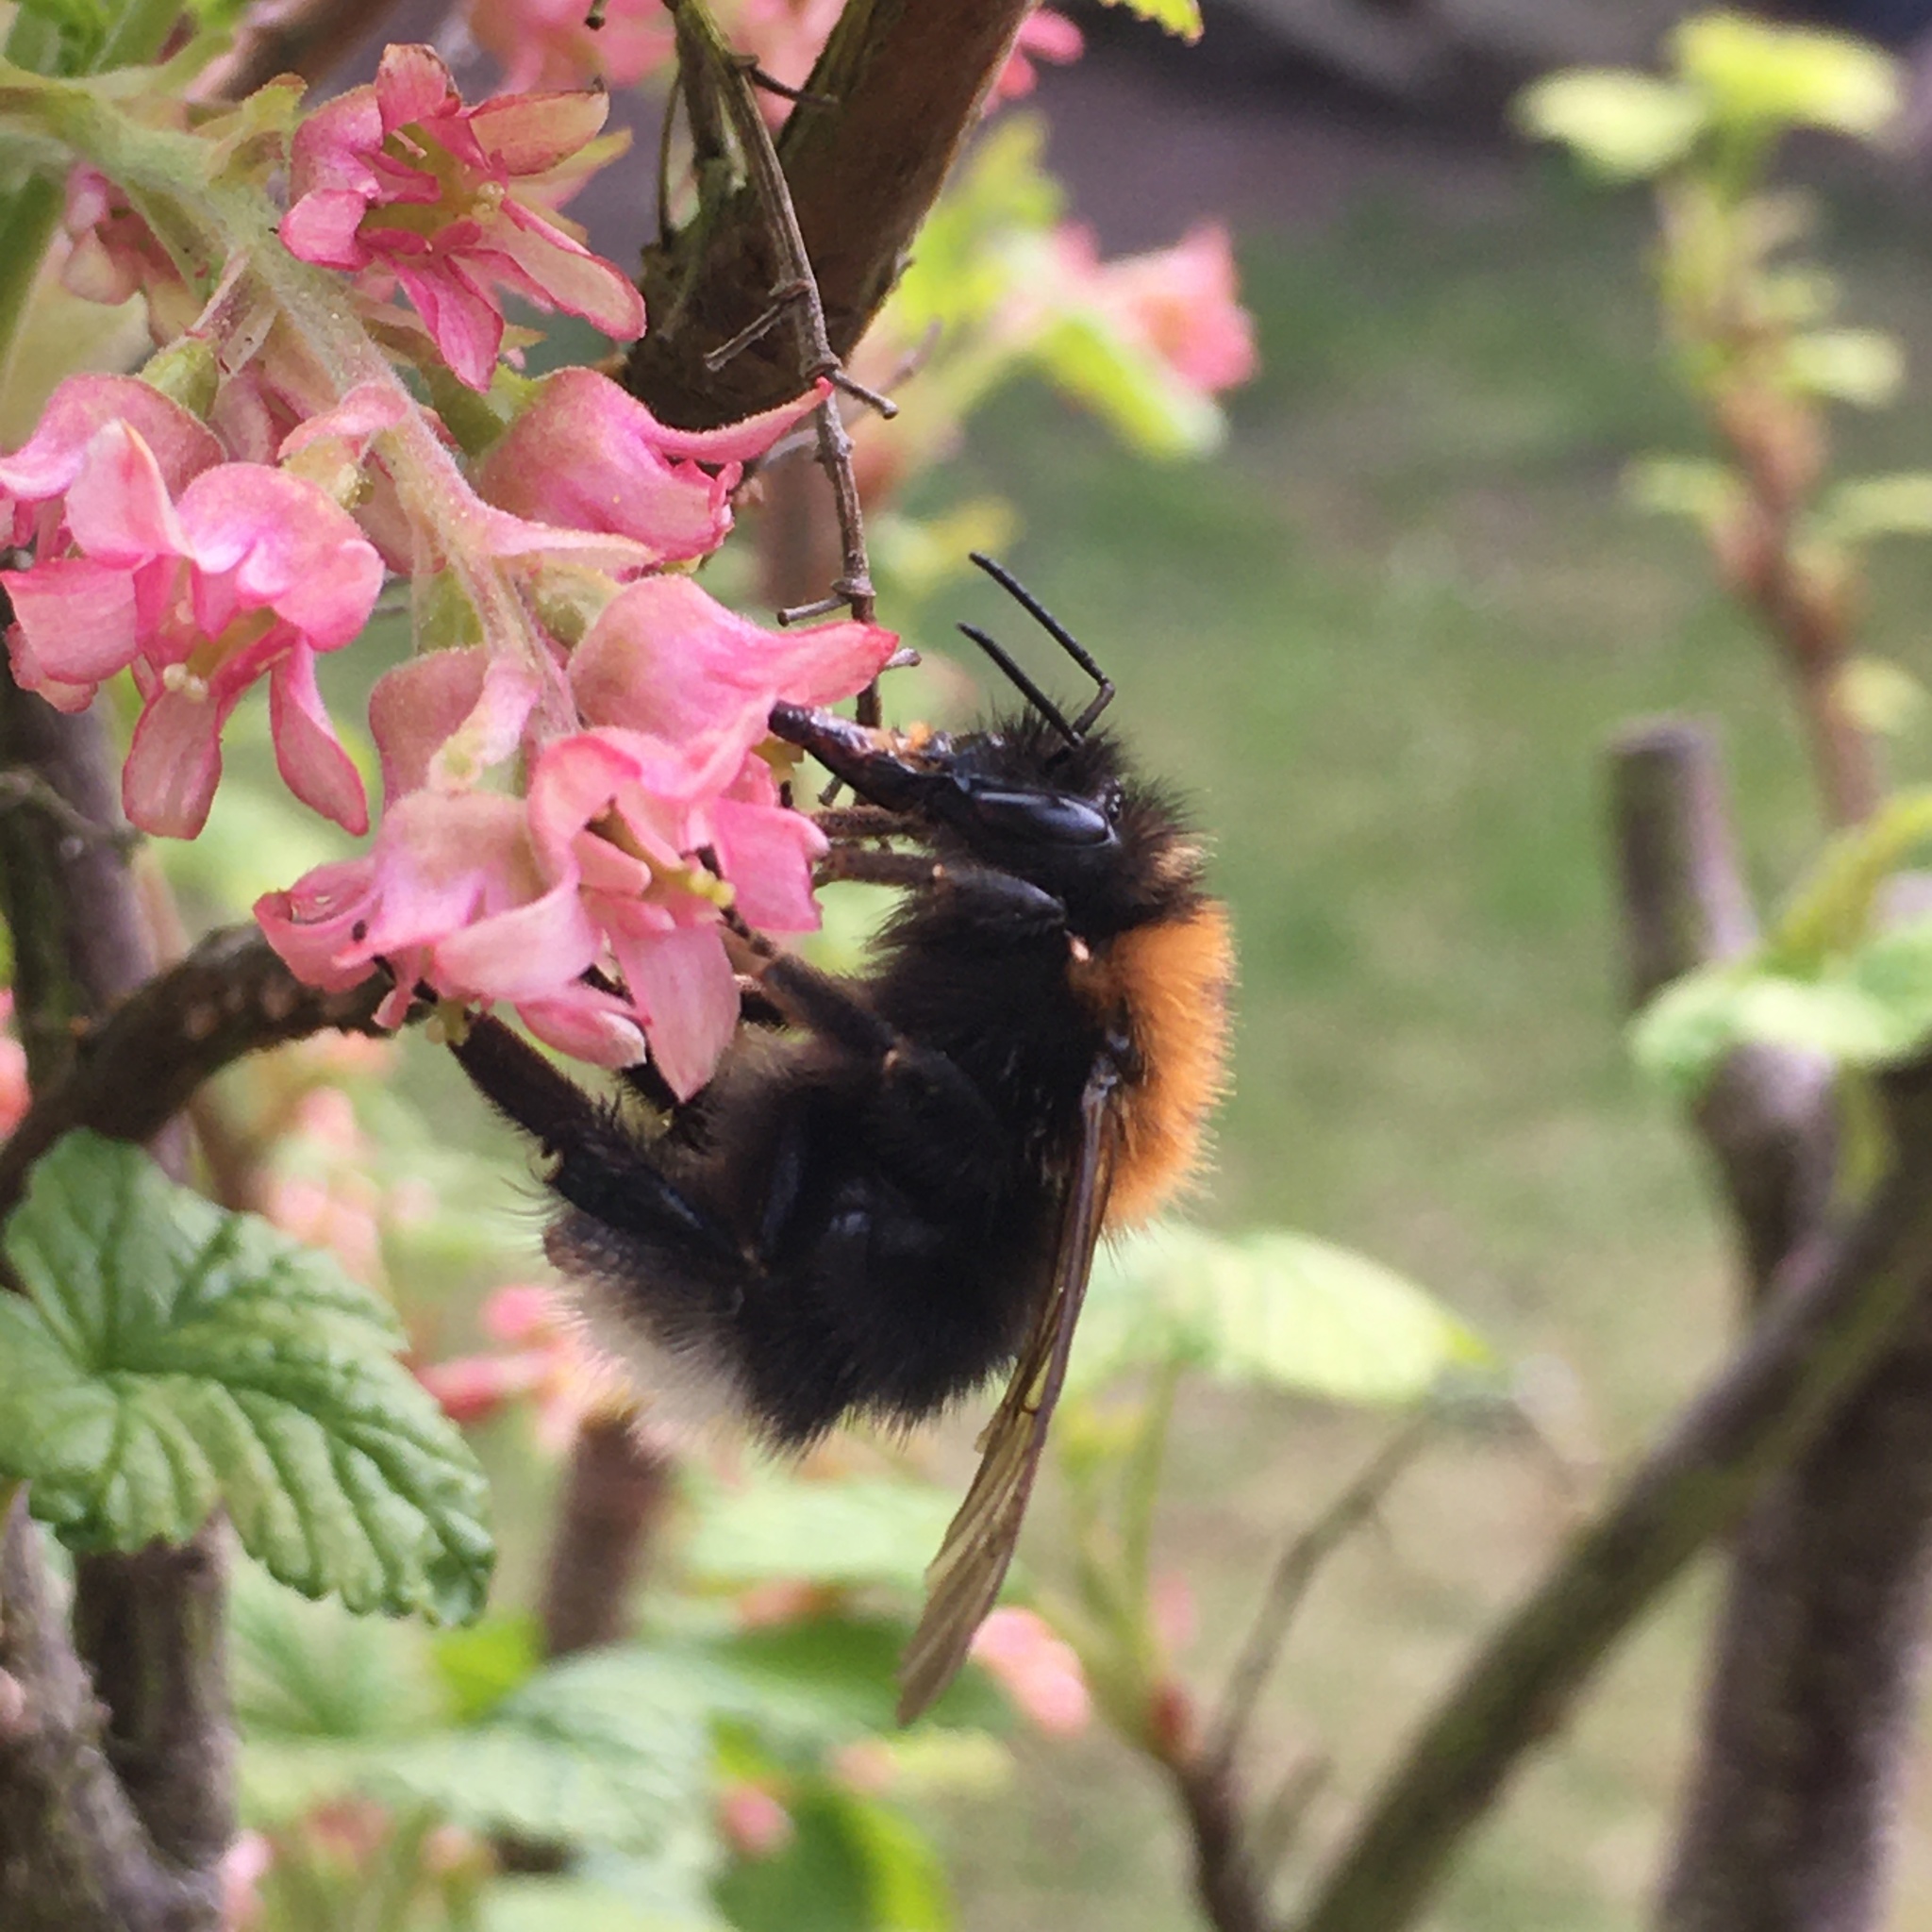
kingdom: Animalia
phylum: Arthropoda
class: Insecta
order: Hymenoptera
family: Apidae
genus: Bombus
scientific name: Bombus hypnorum
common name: New garden bumblebee
